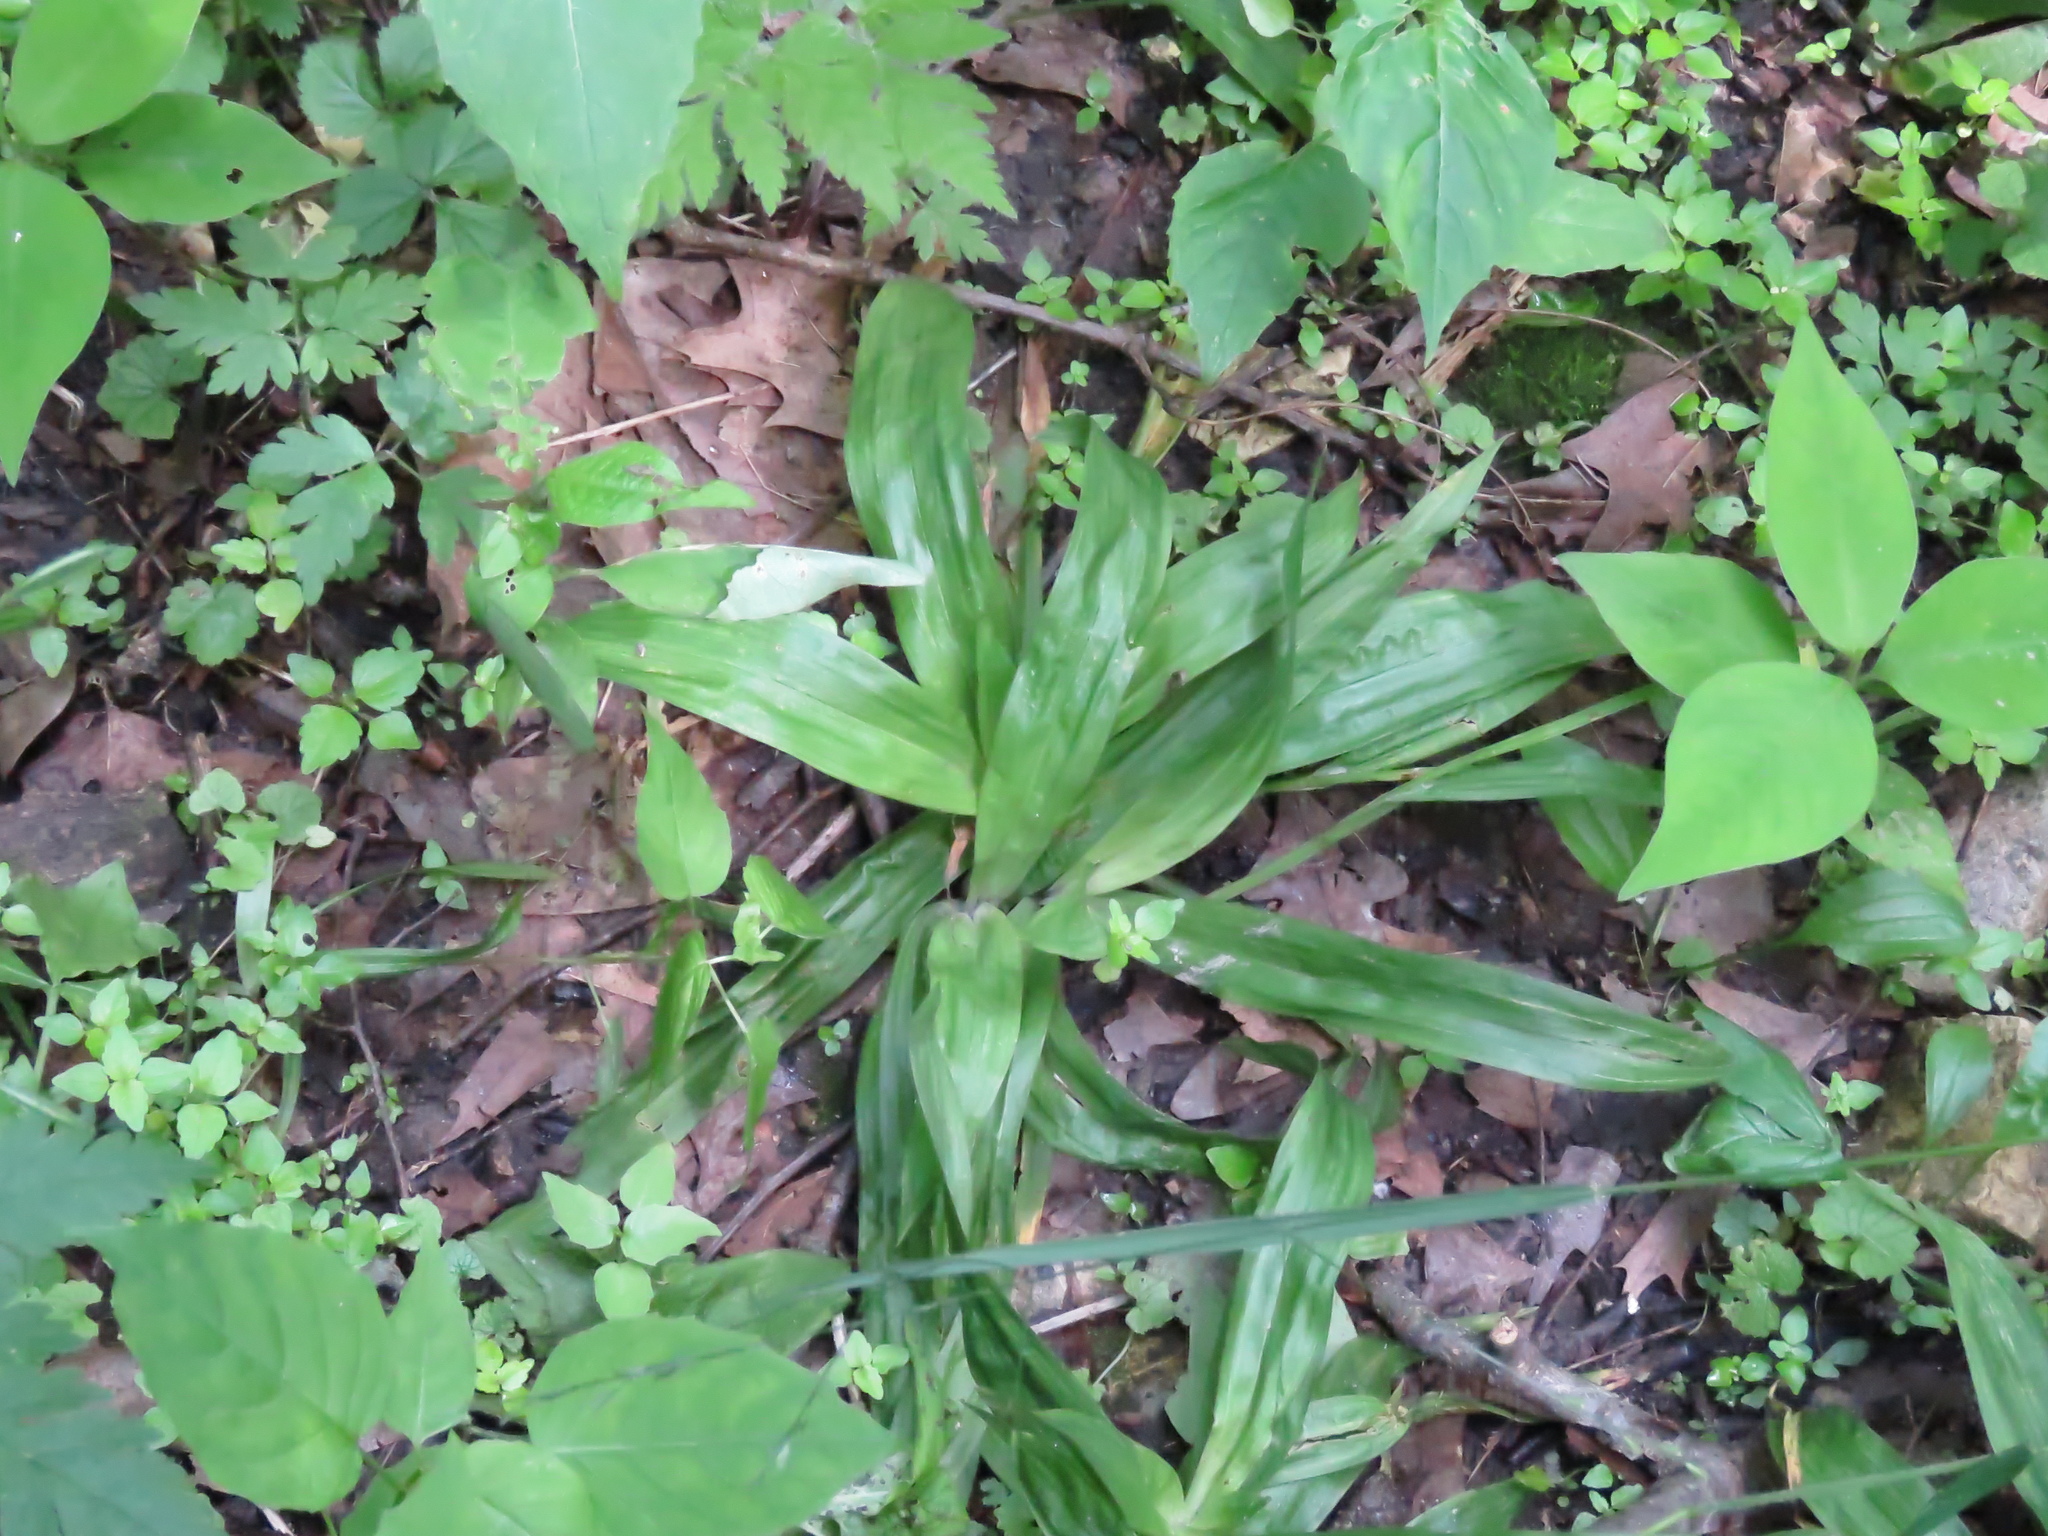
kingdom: Plantae
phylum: Tracheophyta
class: Liliopsida
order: Poales
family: Cyperaceae
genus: Carex
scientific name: Carex albursina
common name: Blunt-scale wood sedge
